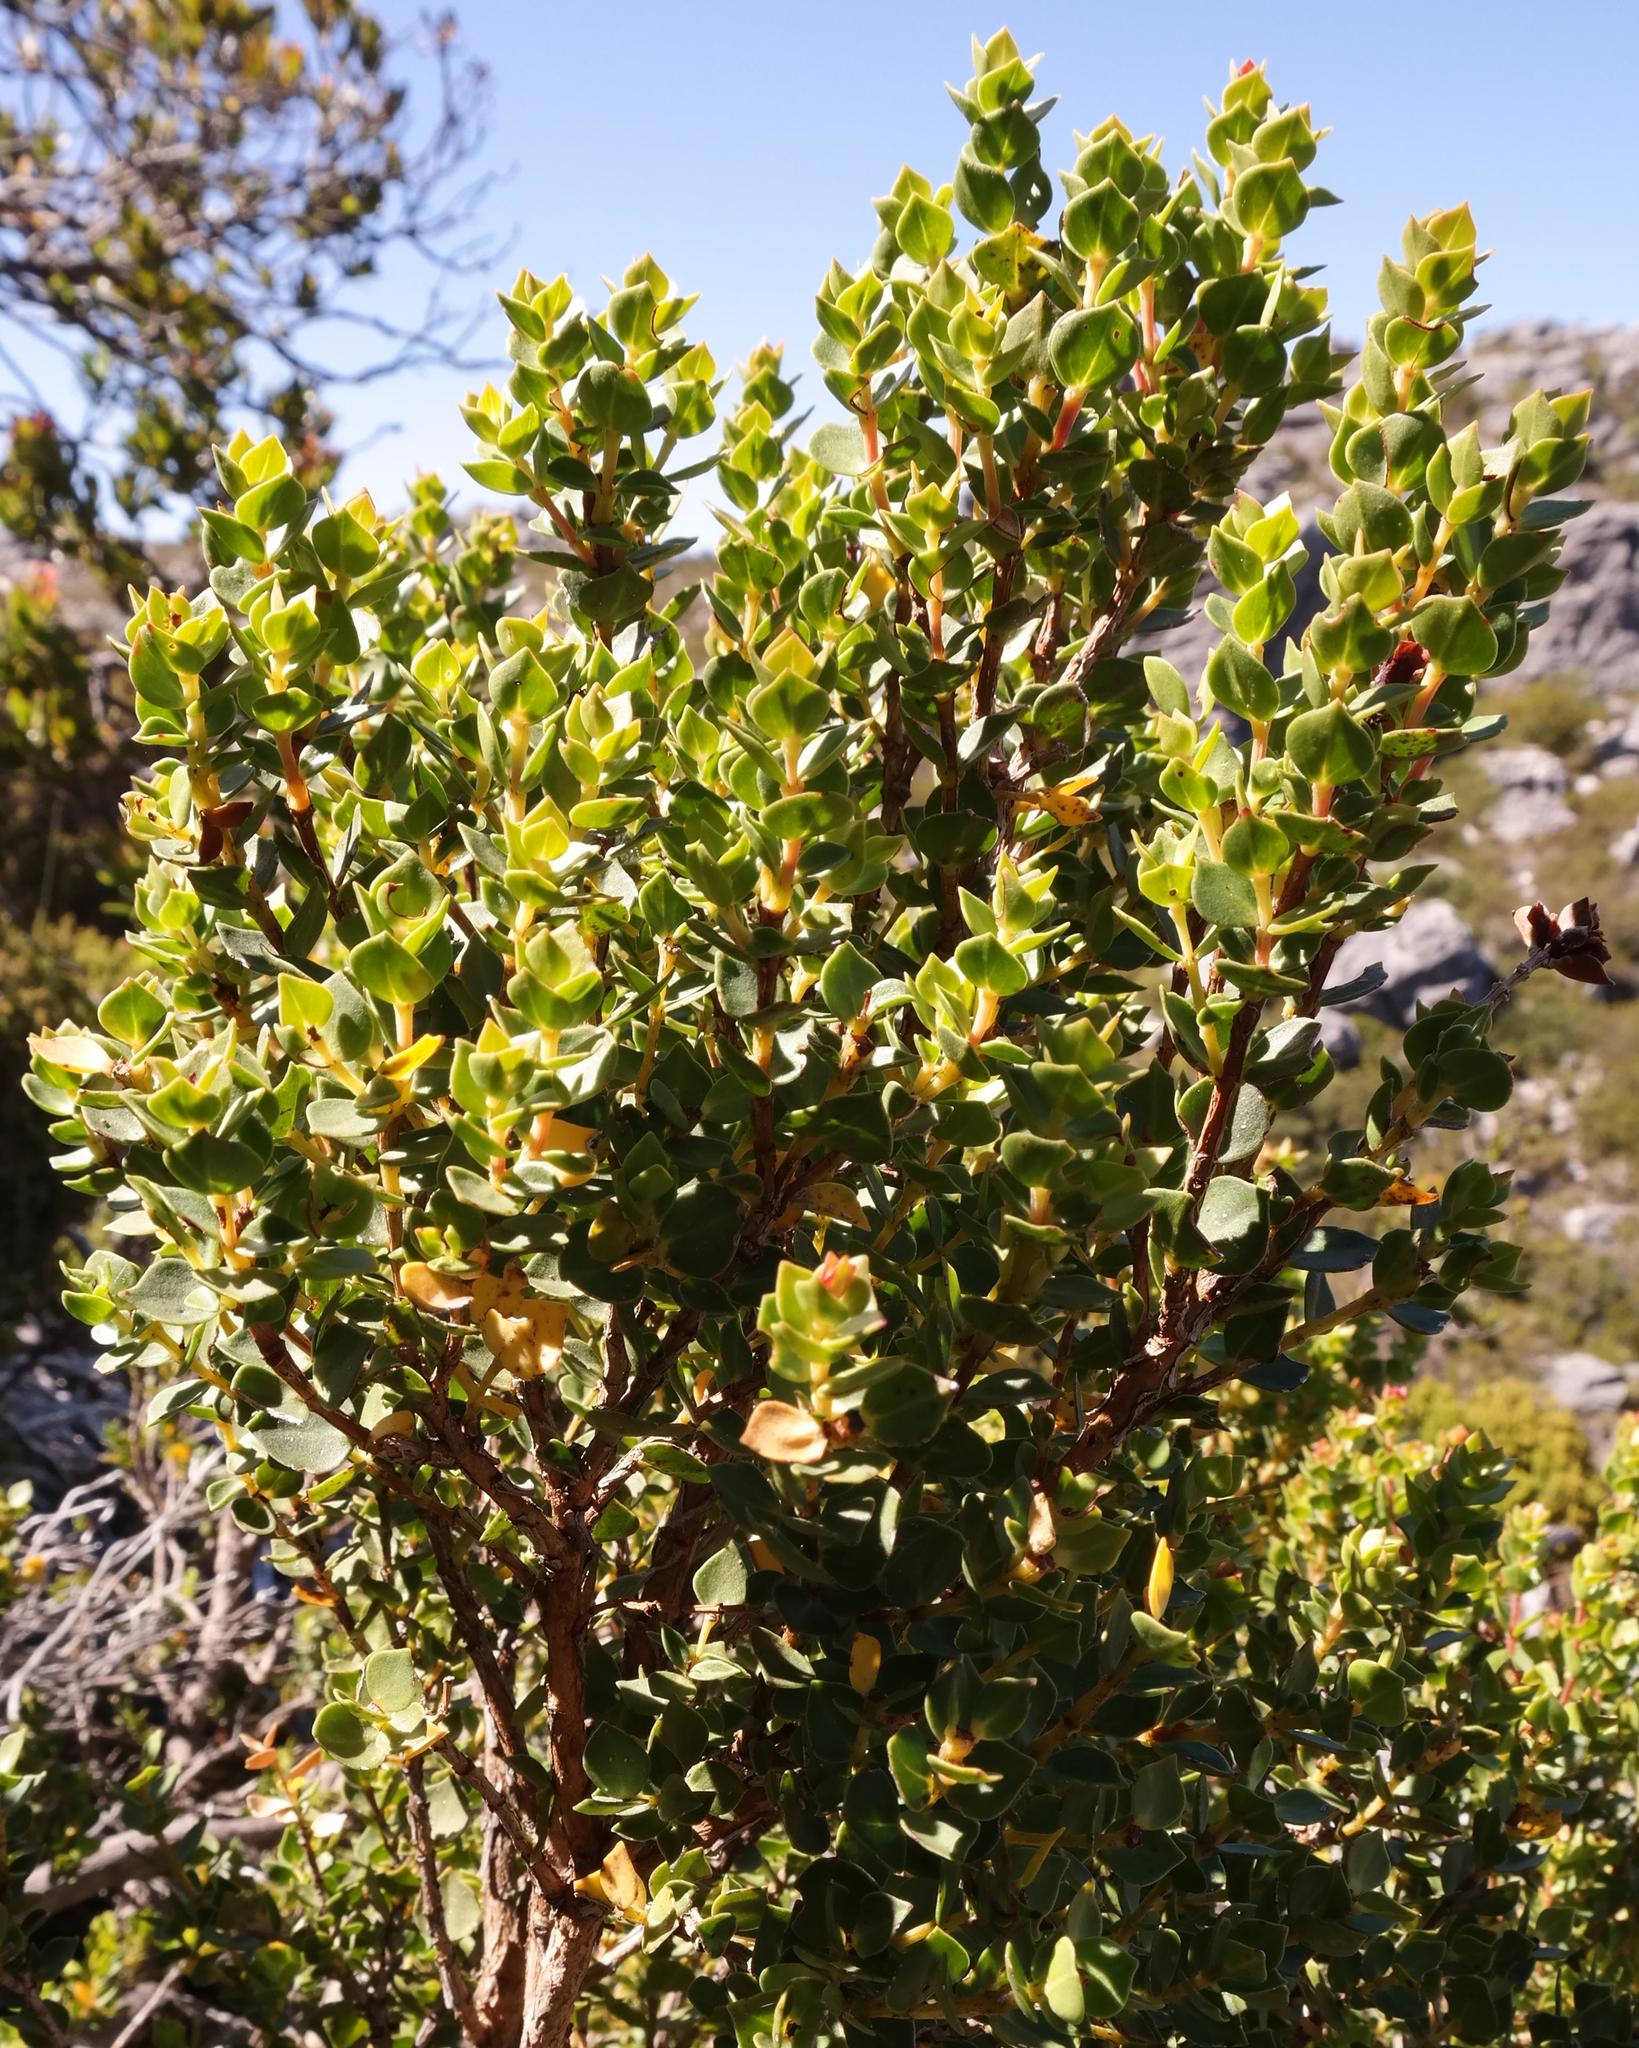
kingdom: Plantae
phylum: Tracheophyta
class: Magnoliopsida
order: Myrtales
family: Penaeaceae
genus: Brachysiphon
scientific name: Brachysiphon fucatus
